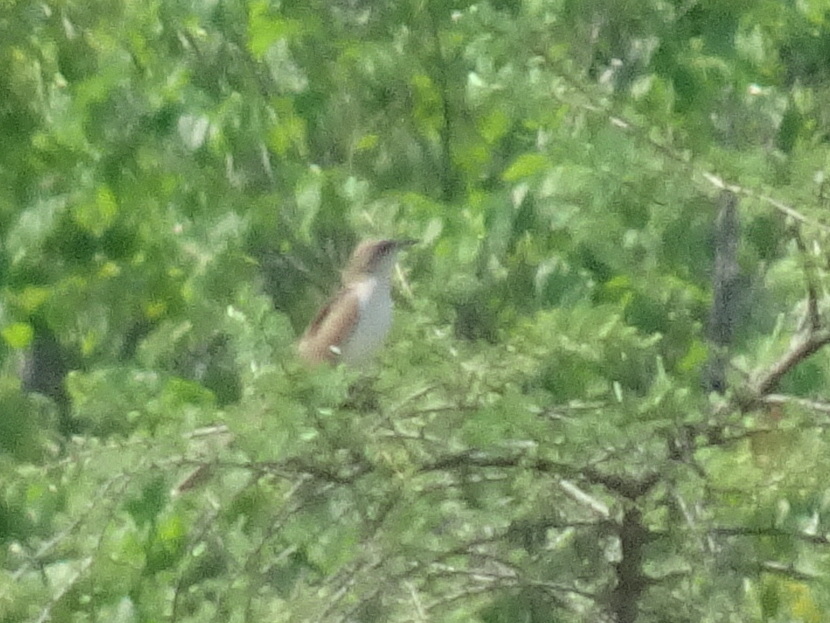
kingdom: Animalia
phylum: Chordata
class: Aves
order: Cuculiformes
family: Cuculidae
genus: Coccyzus
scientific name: Coccyzus erythropthalmus
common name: Black-billed cuckoo
